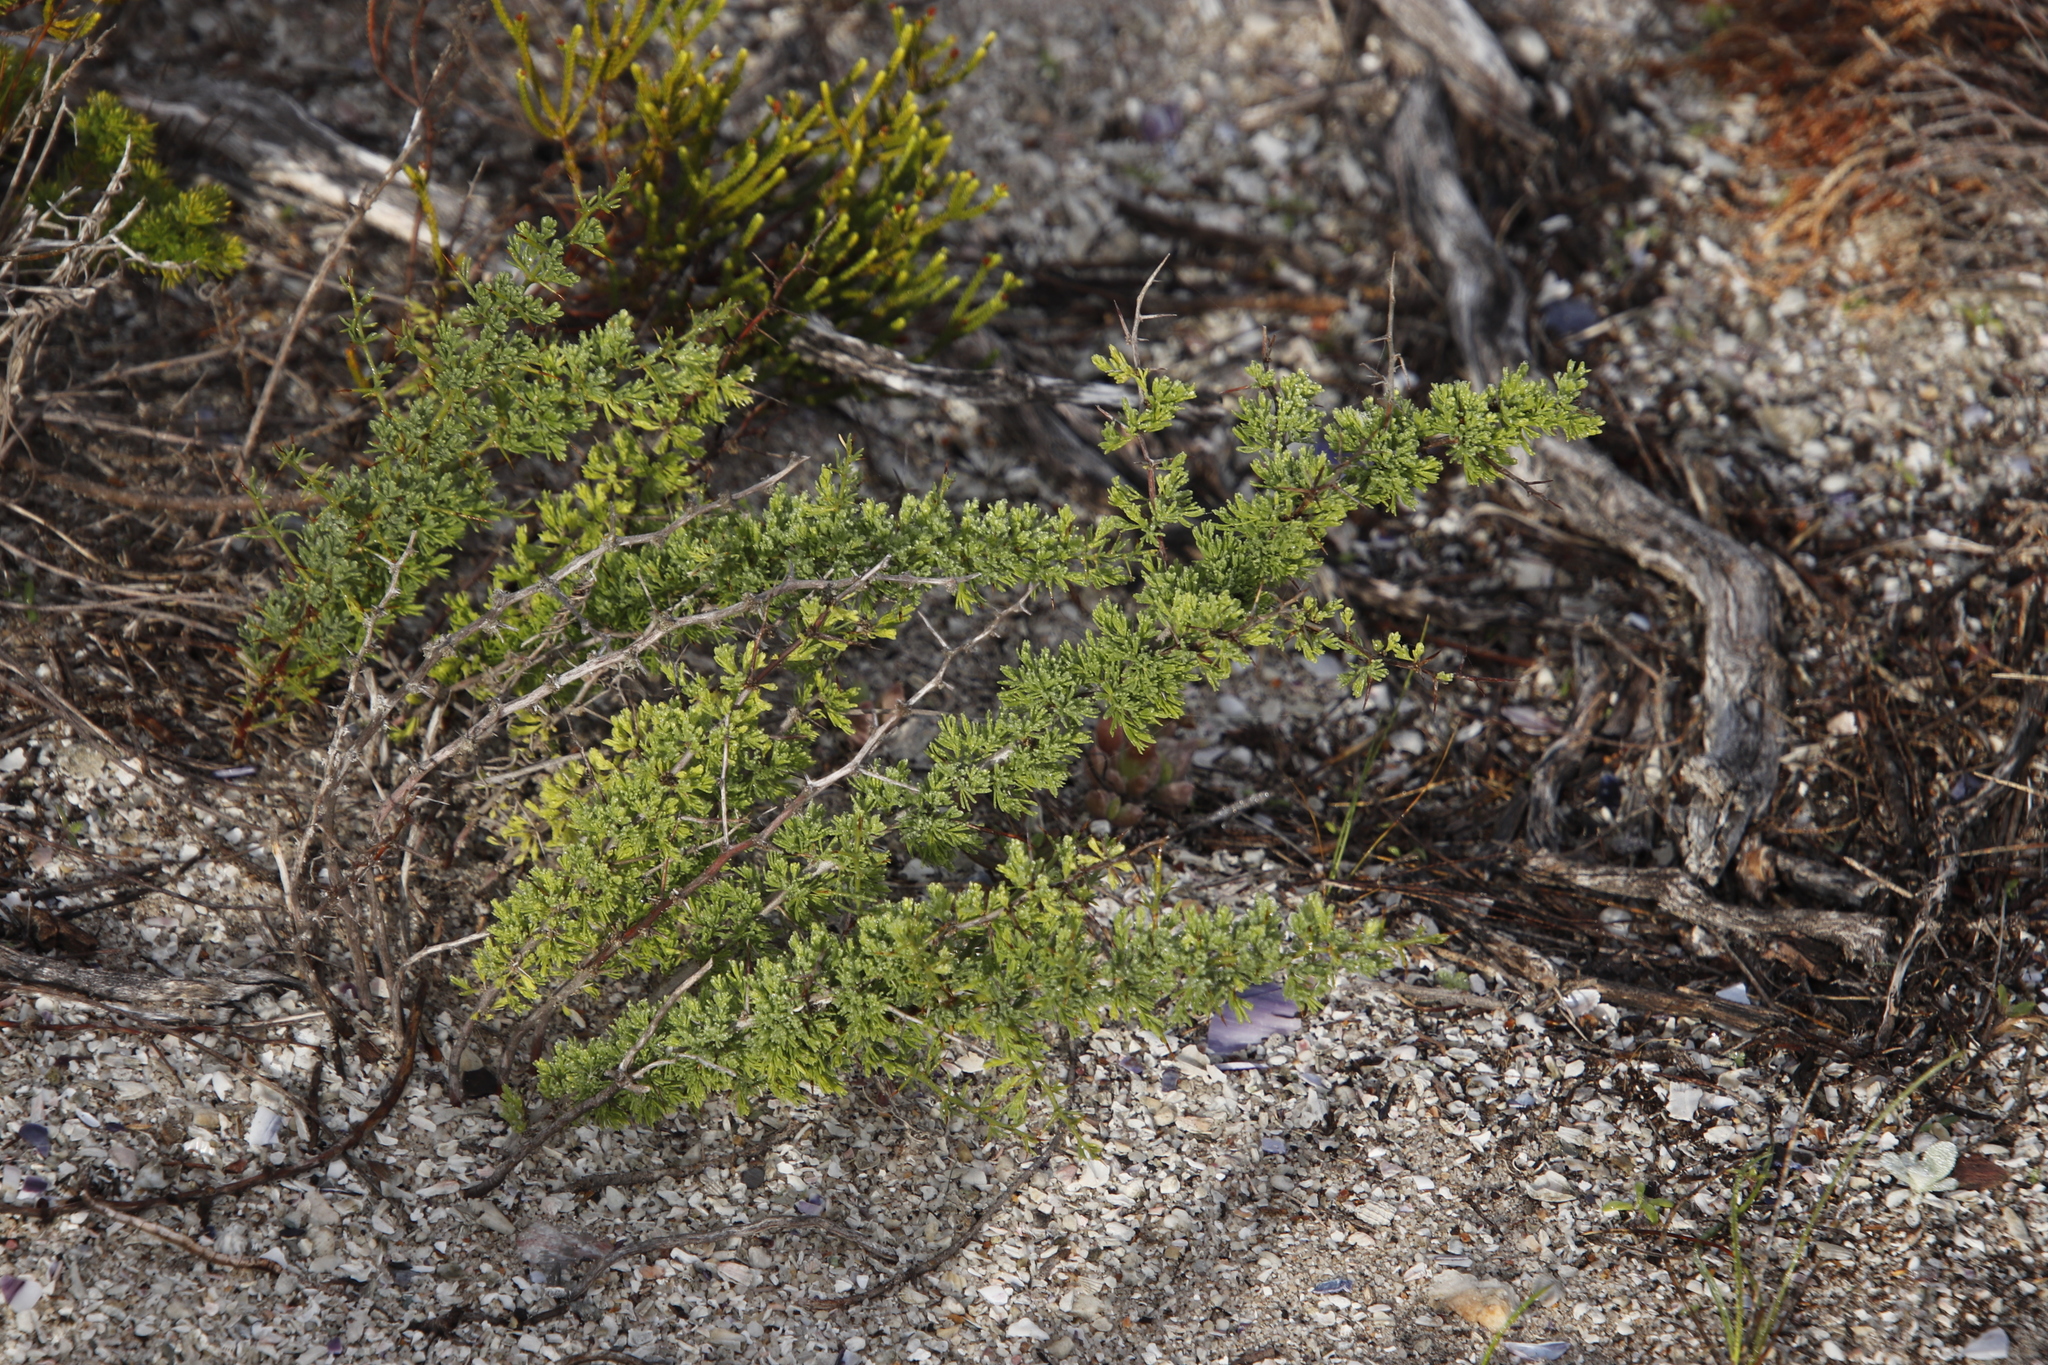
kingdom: Plantae
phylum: Tracheophyta
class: Liliopsida
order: Asparagales
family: Asparagaceae
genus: Asparagus
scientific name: Asparagus capensis
